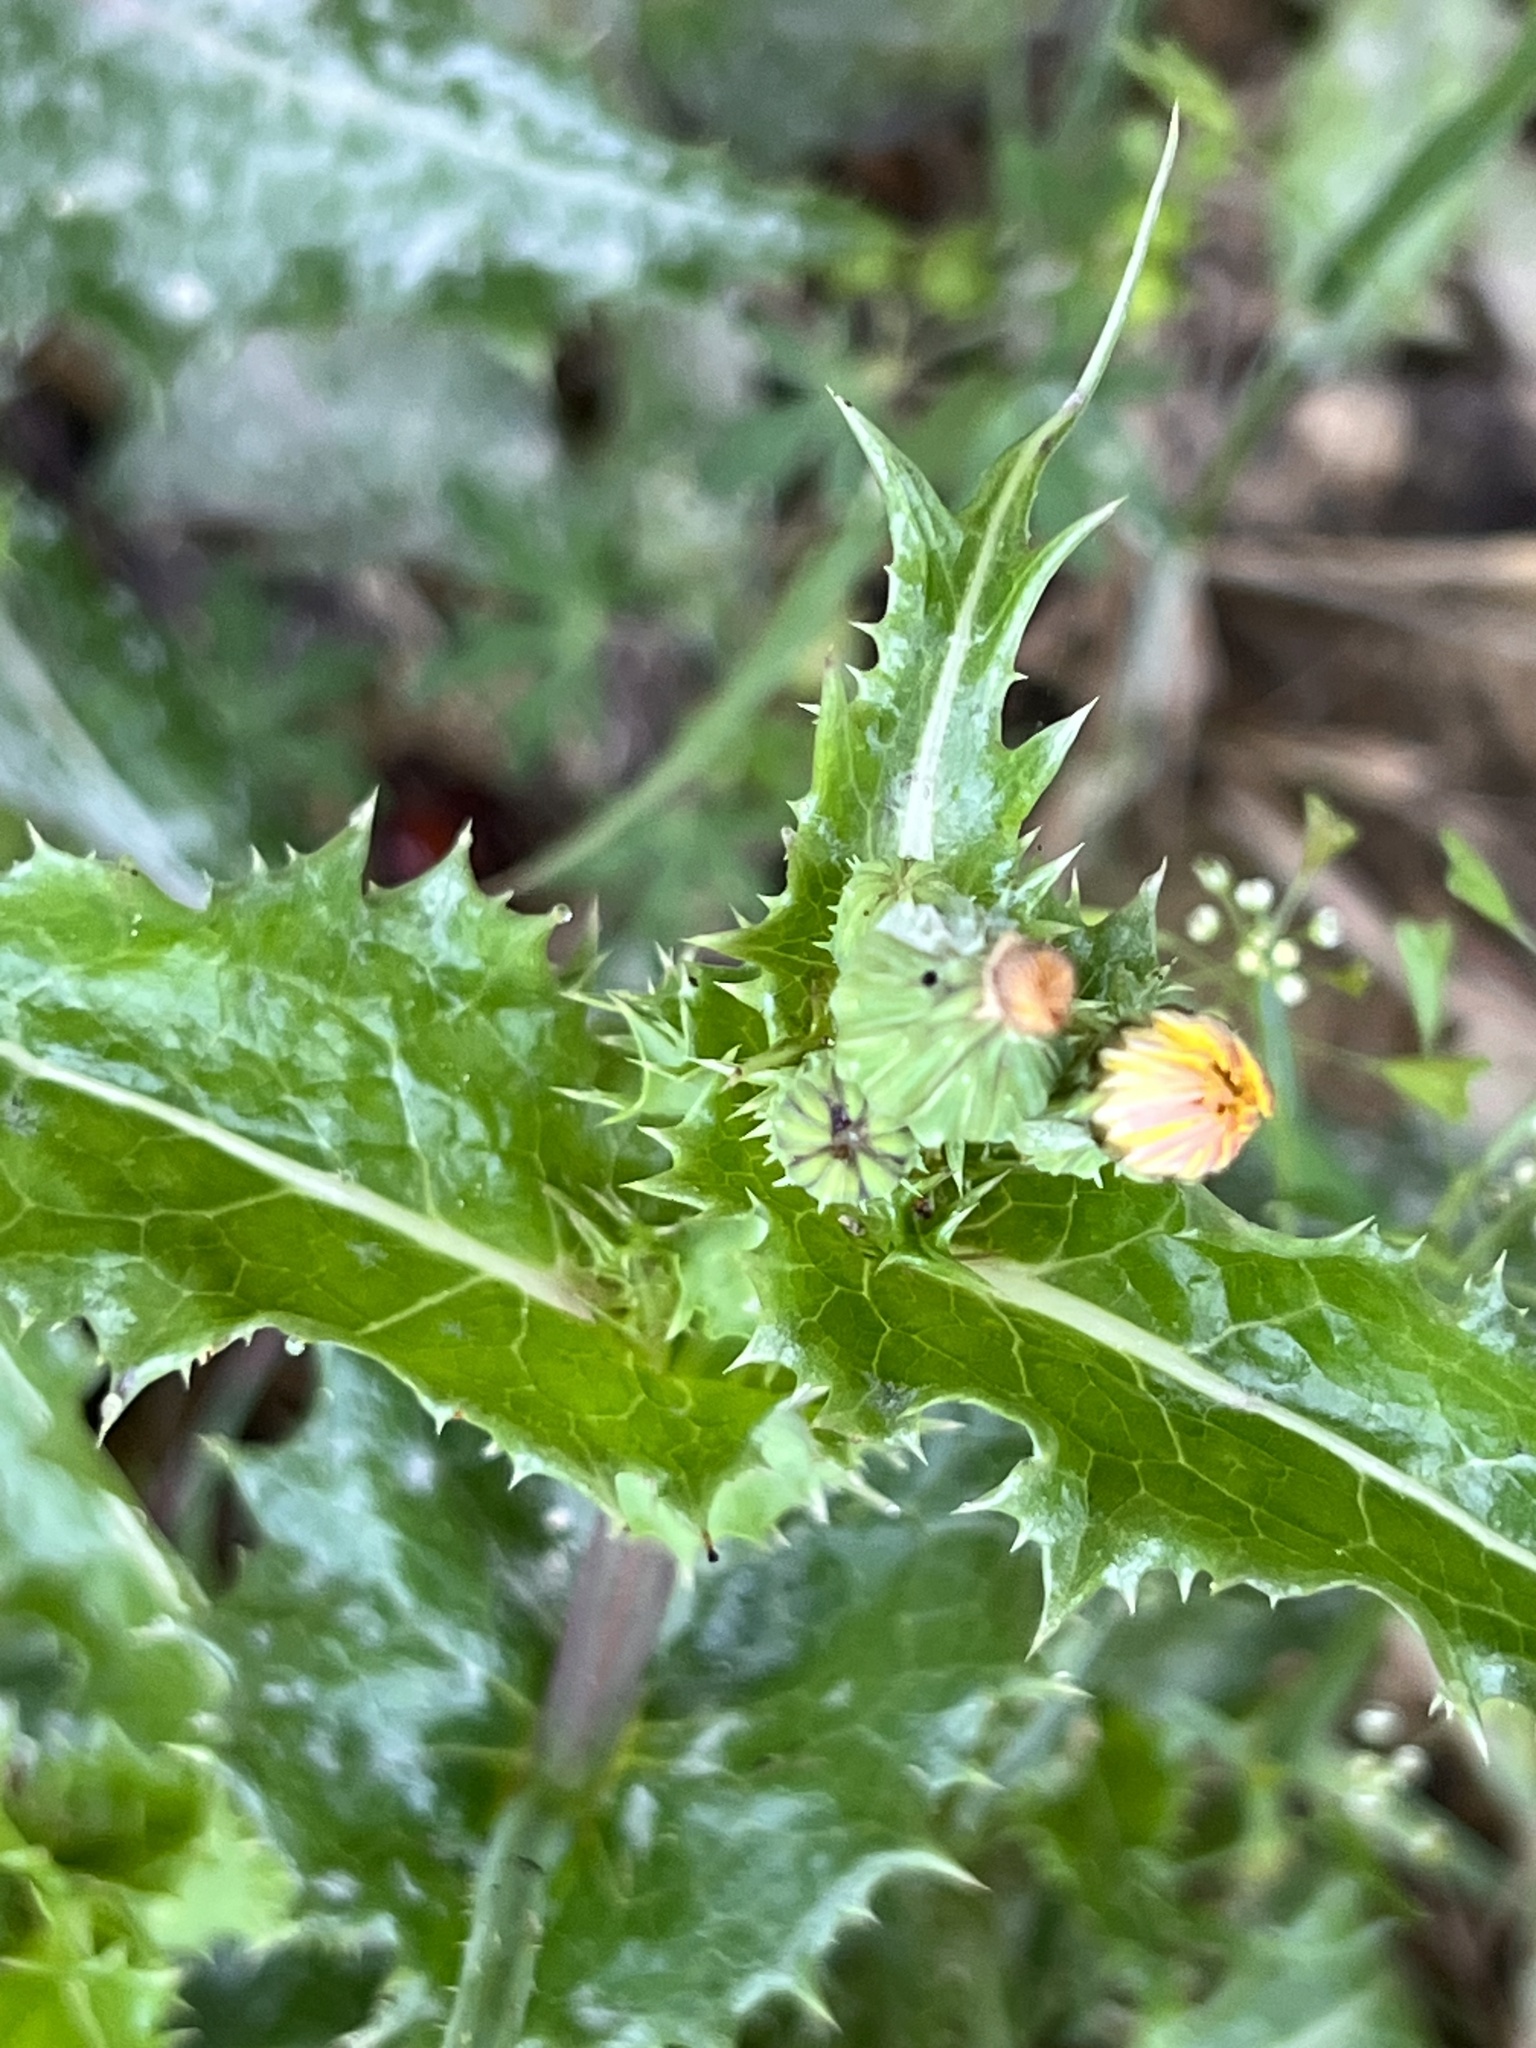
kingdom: Plantae
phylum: Tracheophyta
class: Magnoliopsida
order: Asterales
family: Asteraceae
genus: Sonchus
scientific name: Sonchus asper
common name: Prickly sow-thistle
